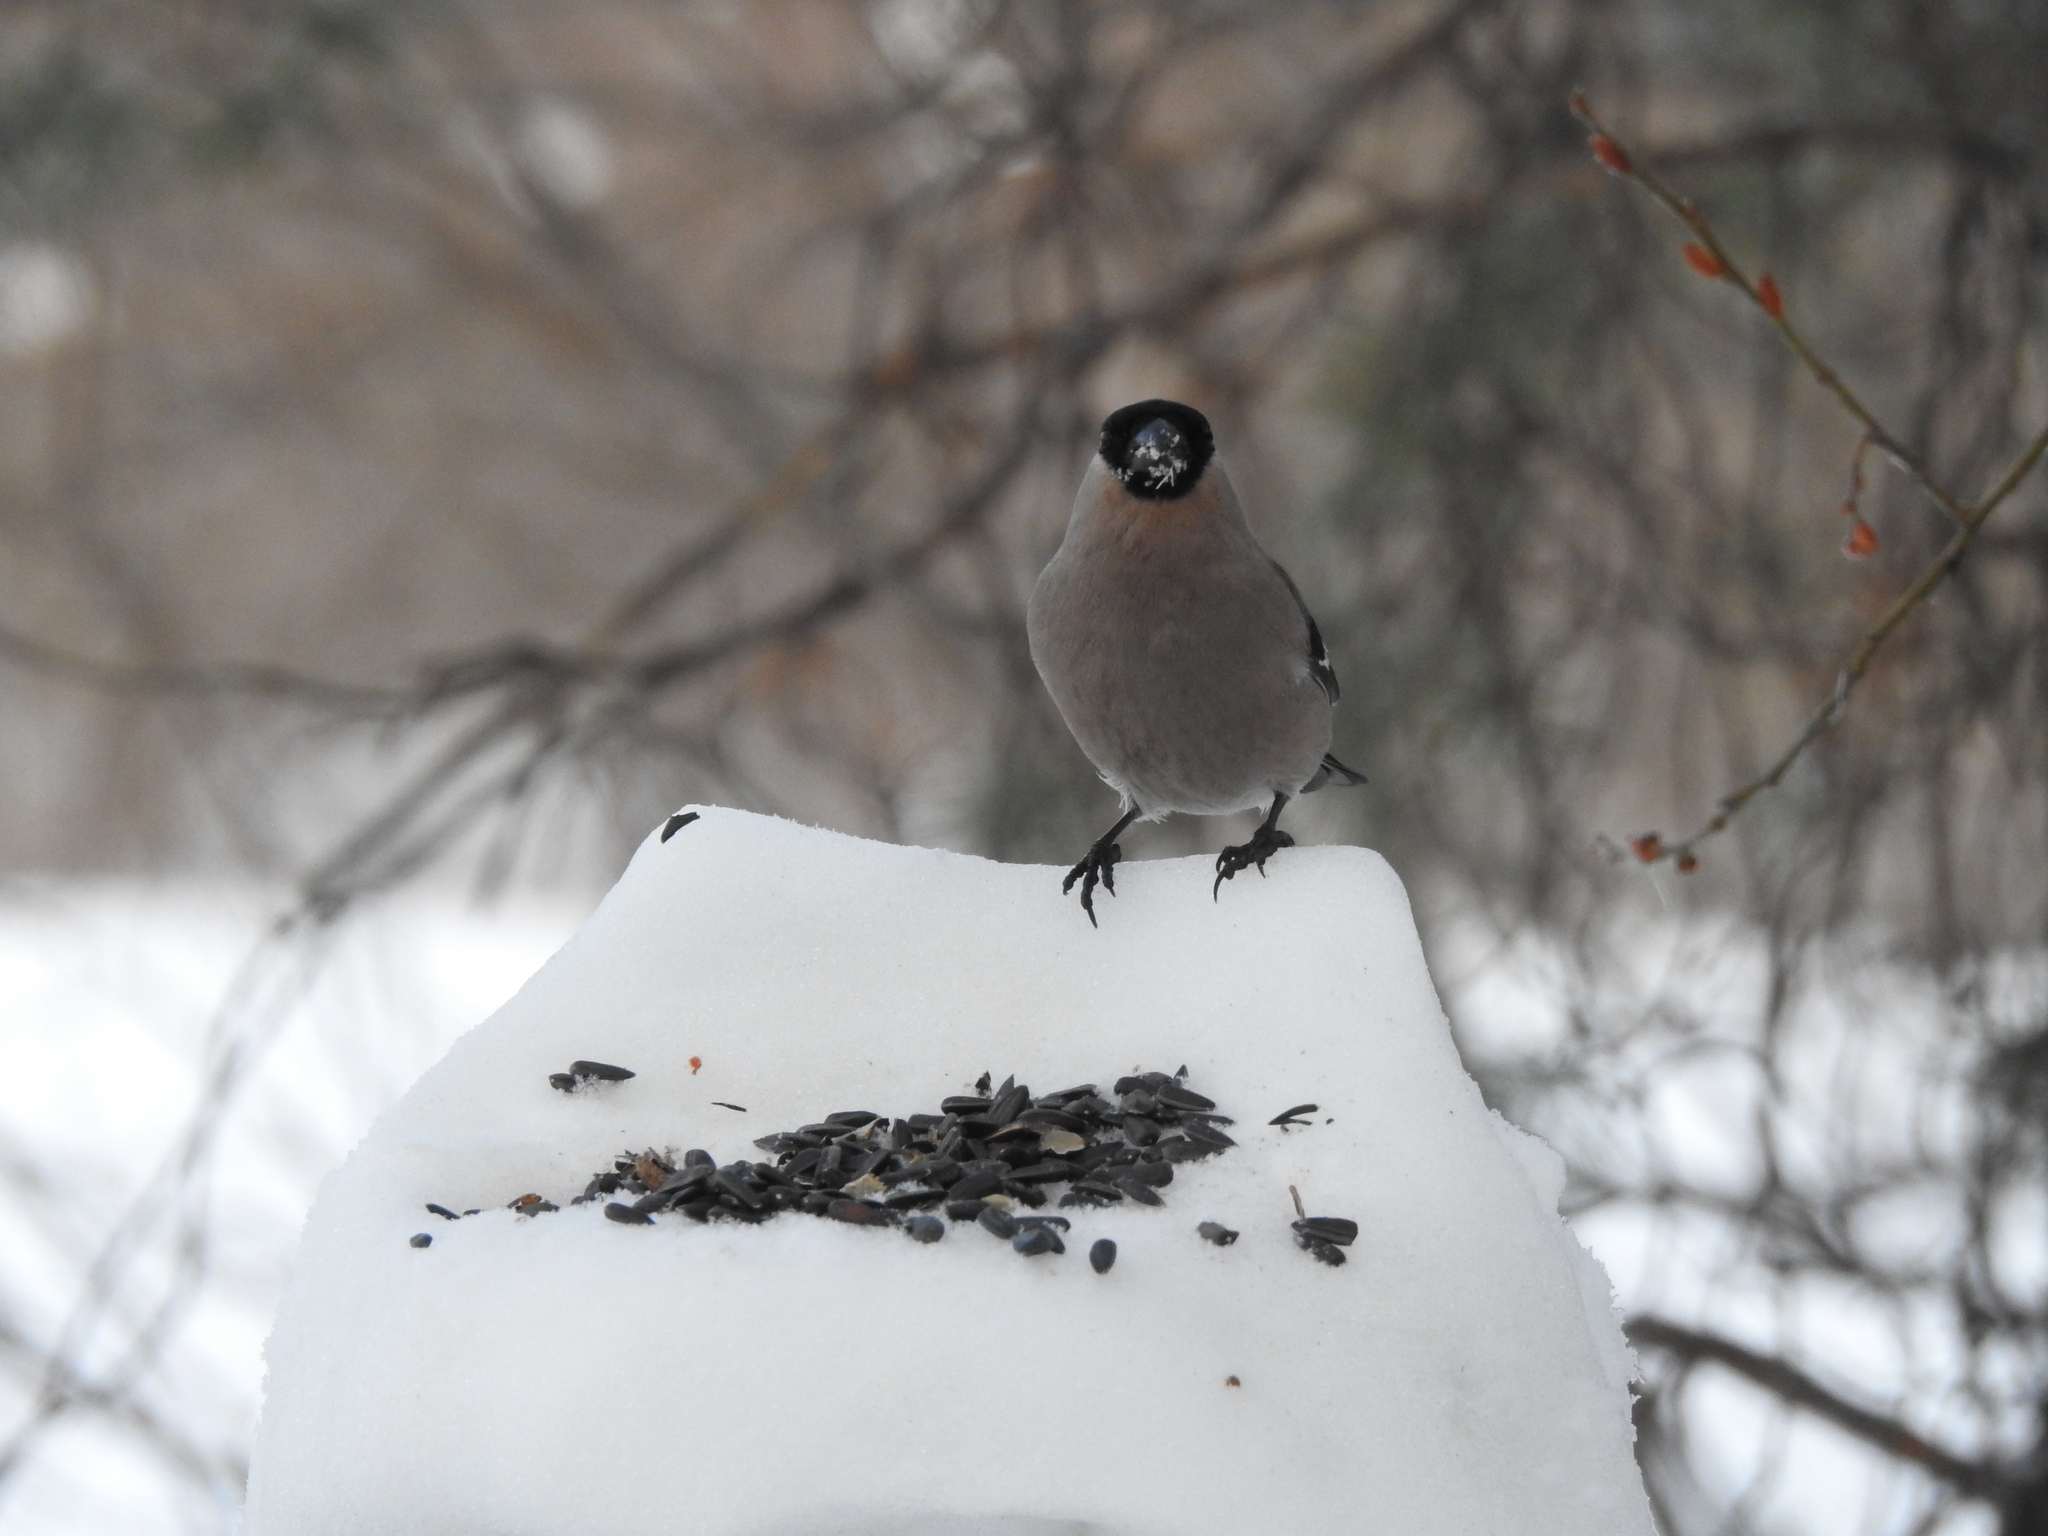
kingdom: Animalia
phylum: Chordata
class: Aves
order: Passeriformes
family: Fringillidae
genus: Pyrrhula
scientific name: Pyrrhula pyrrhula
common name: Eurasian bullfinch
